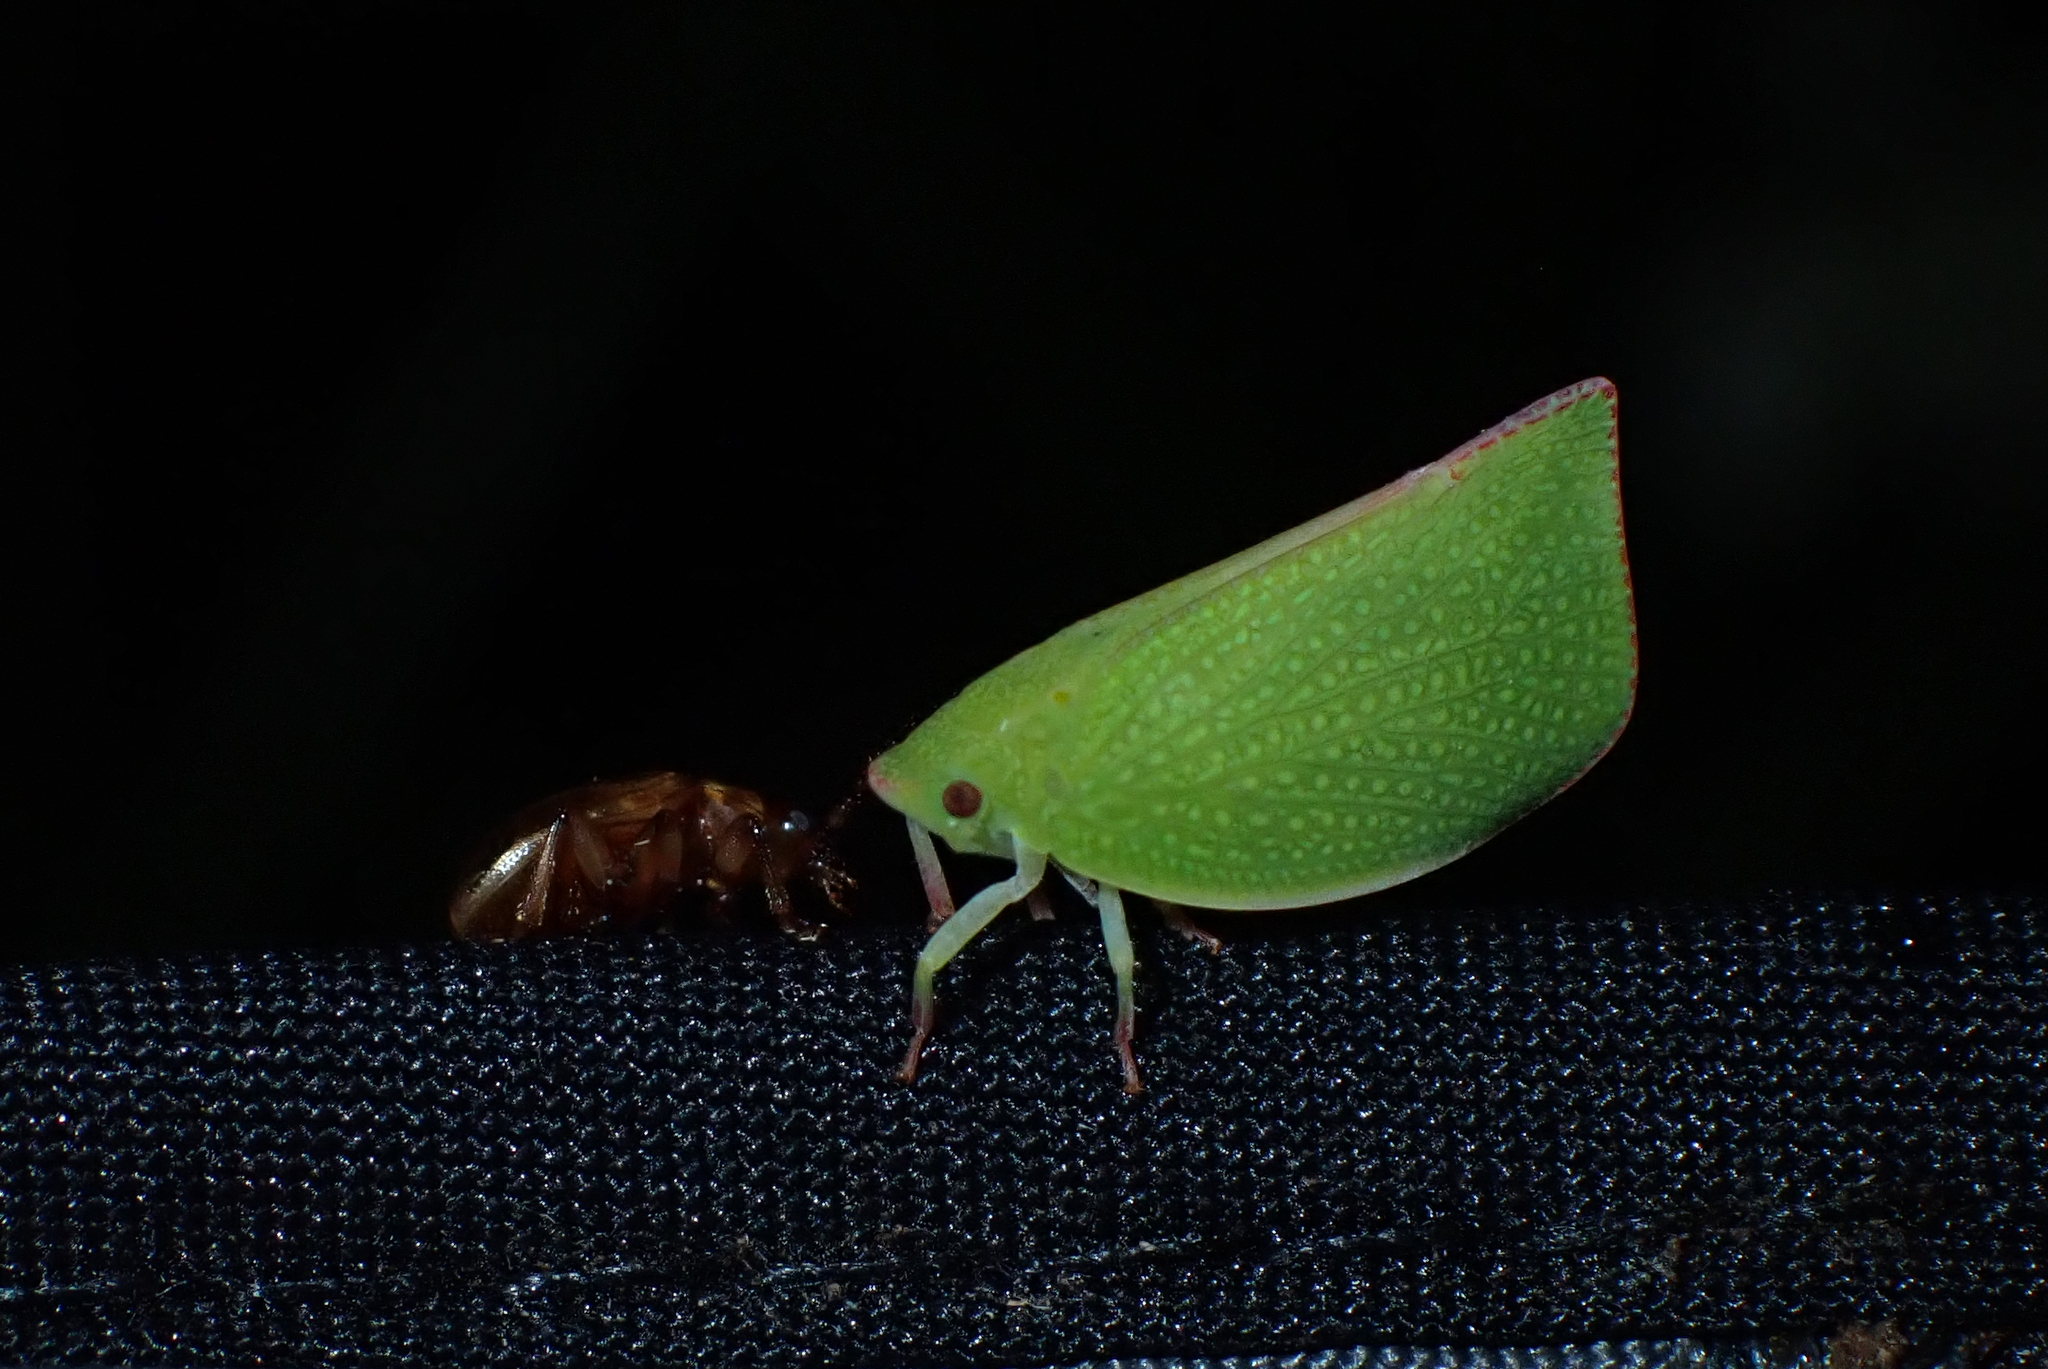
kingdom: Animalia
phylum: Arthropoda
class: Insecta
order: Hemiptera
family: Flatidae
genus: Siphanta
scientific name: Siphanta acuta
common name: Torpedo bug
